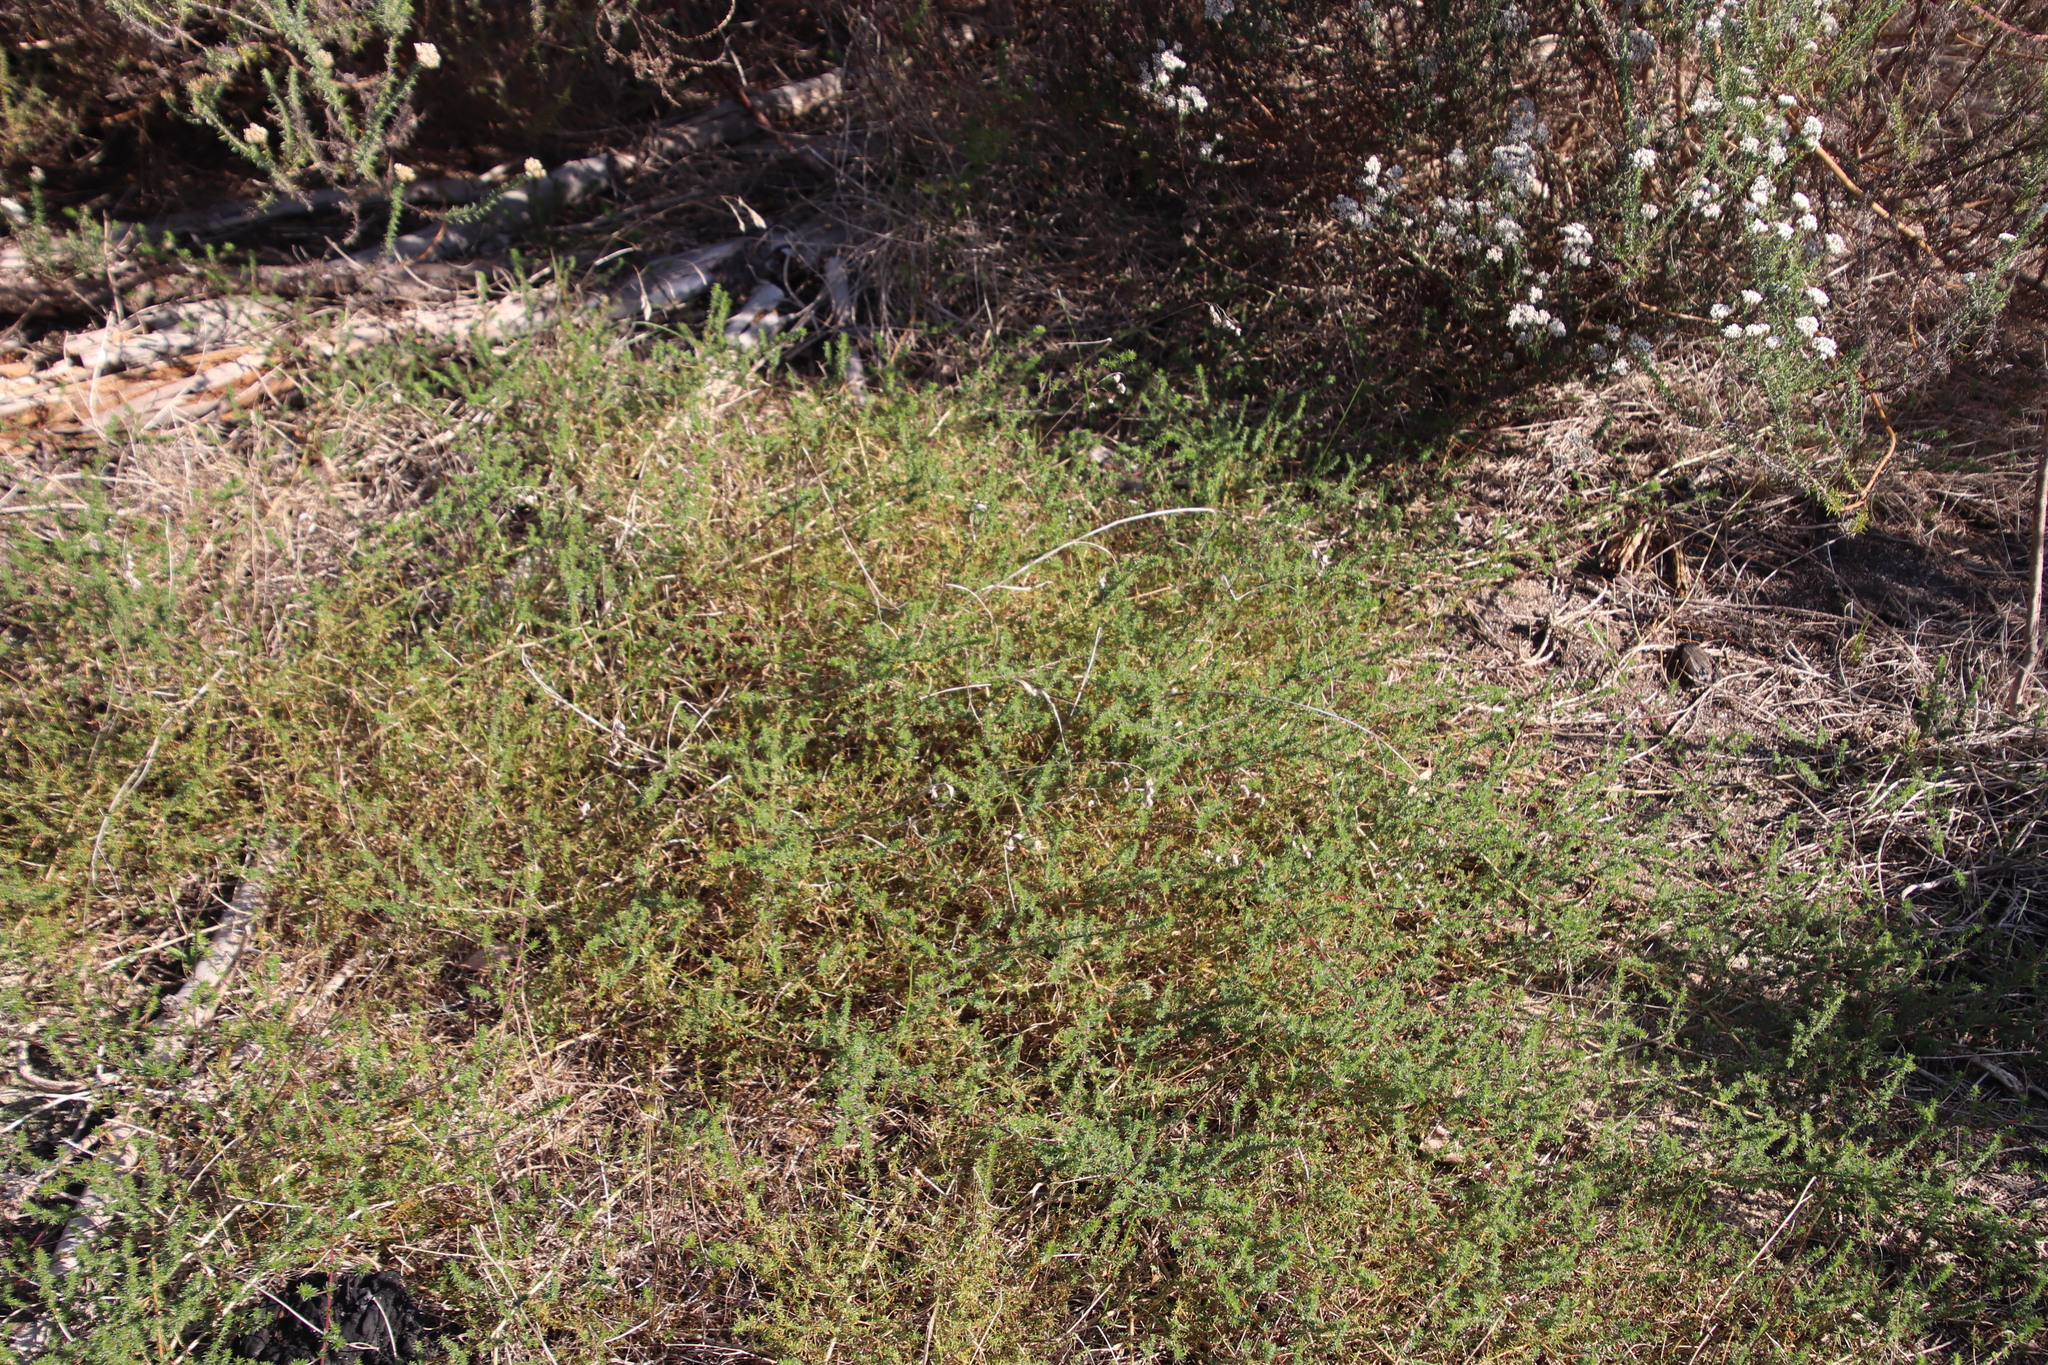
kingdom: Plantae
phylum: Tracheophyta
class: Magnoliopsida
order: Fabales
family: Fabaceae
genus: Aspalathus
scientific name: Aspalathus retroflexa
